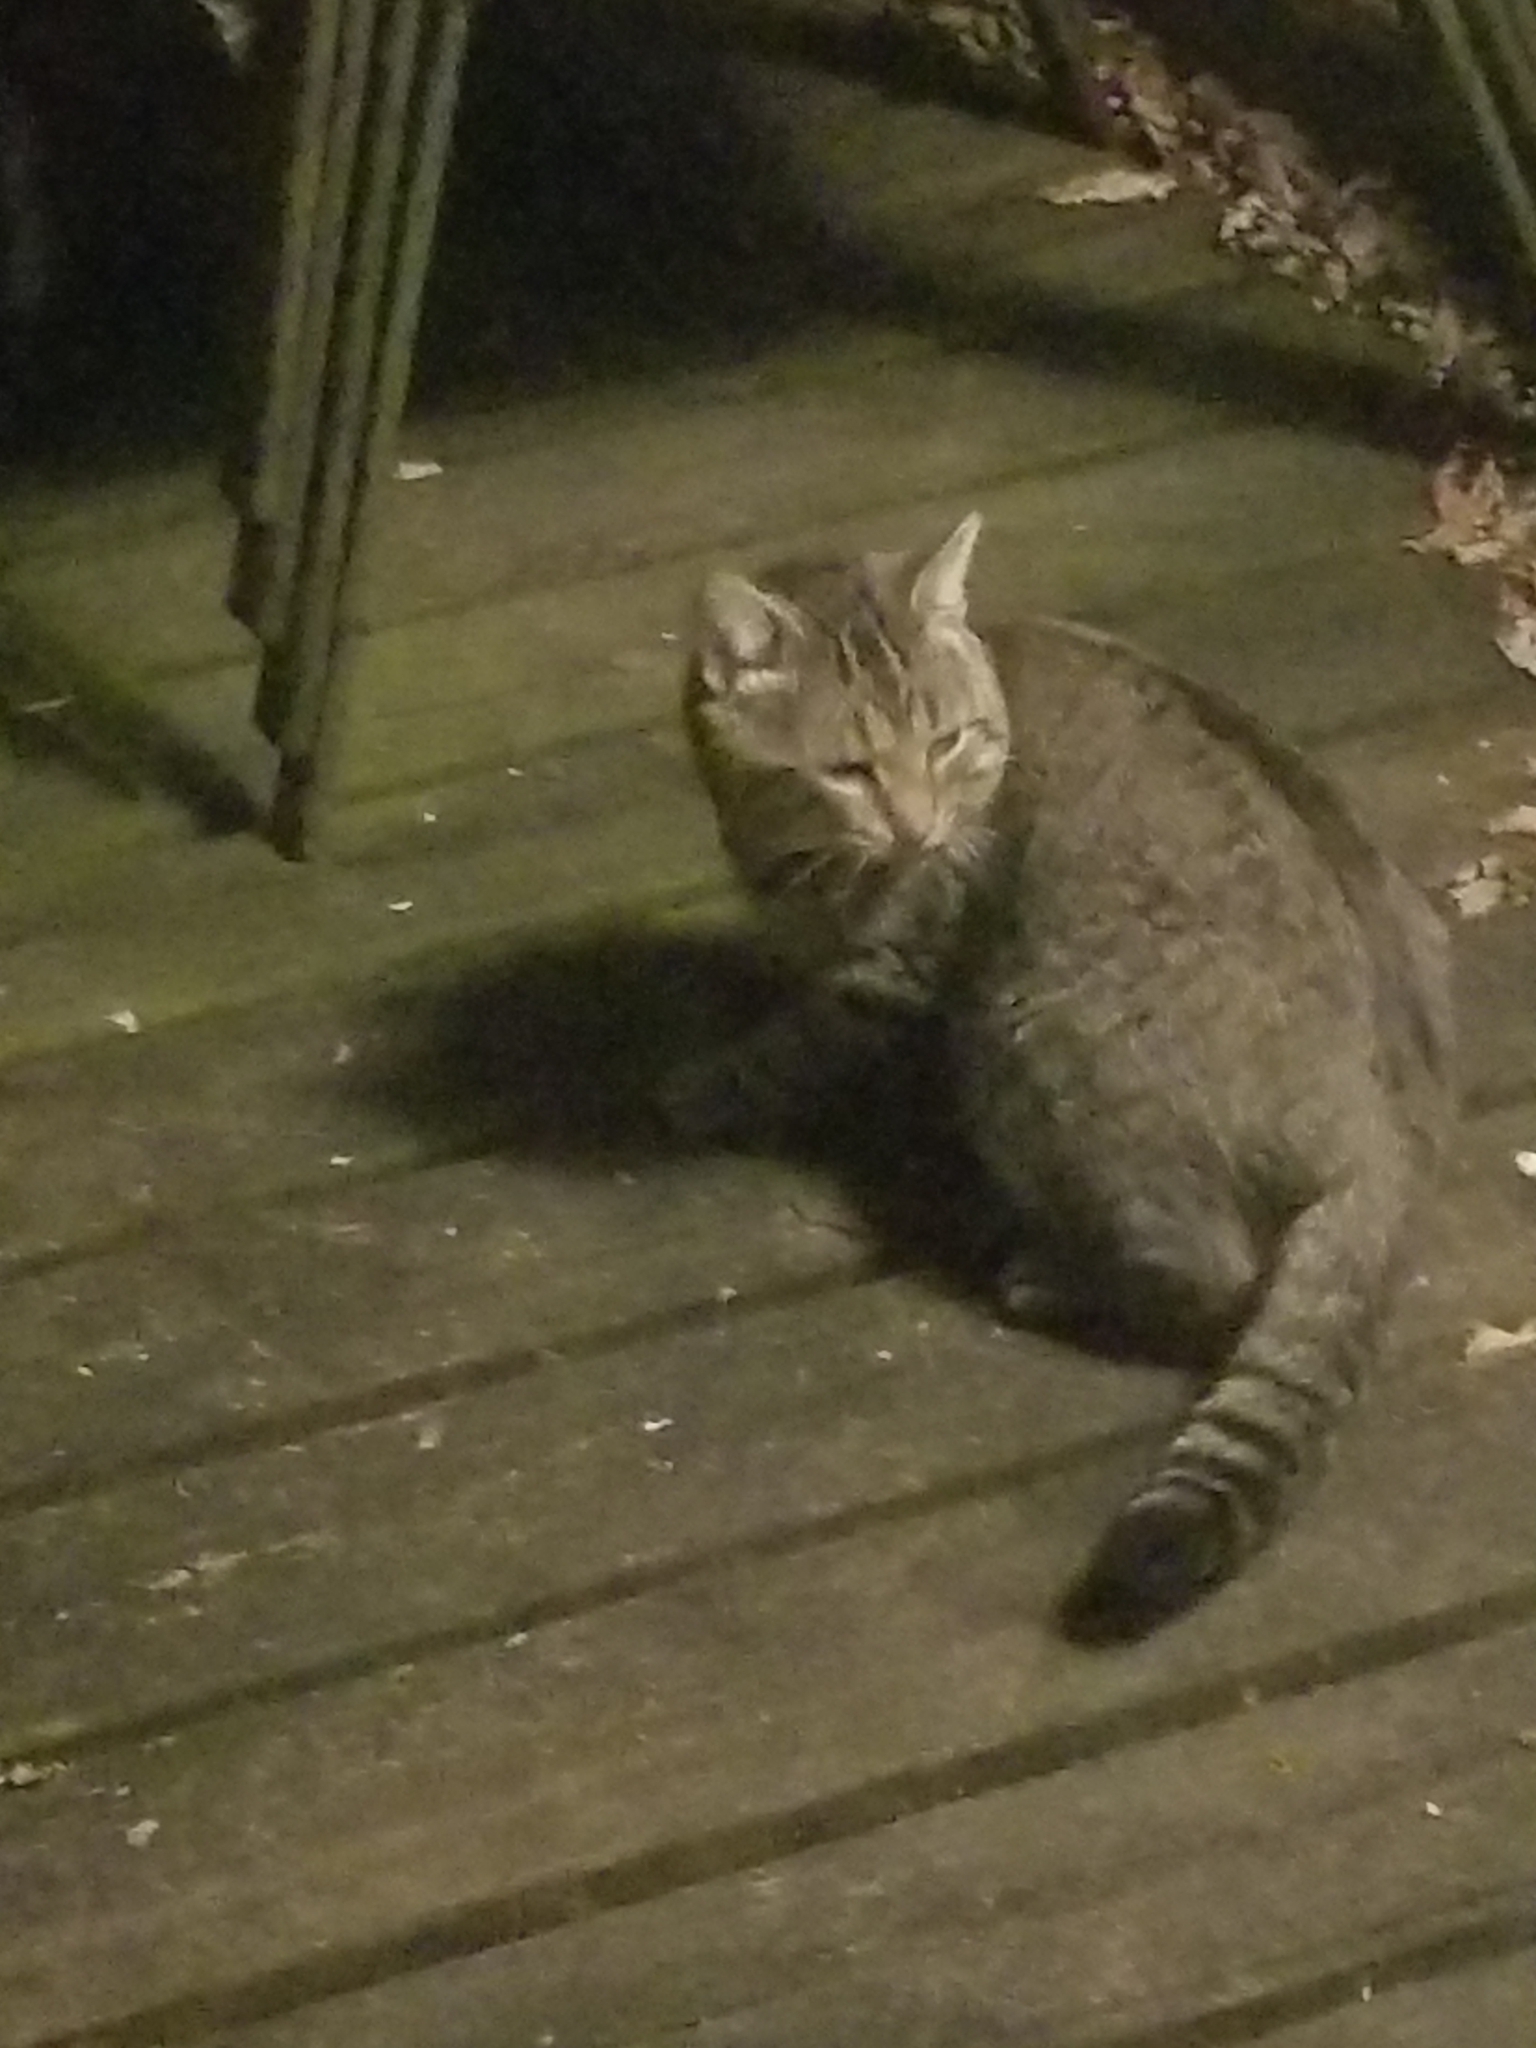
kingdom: Animalia
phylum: Chordata
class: Mammalia
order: Carnivora
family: Felidae
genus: Felis
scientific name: Felis catus
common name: Domestic cat
